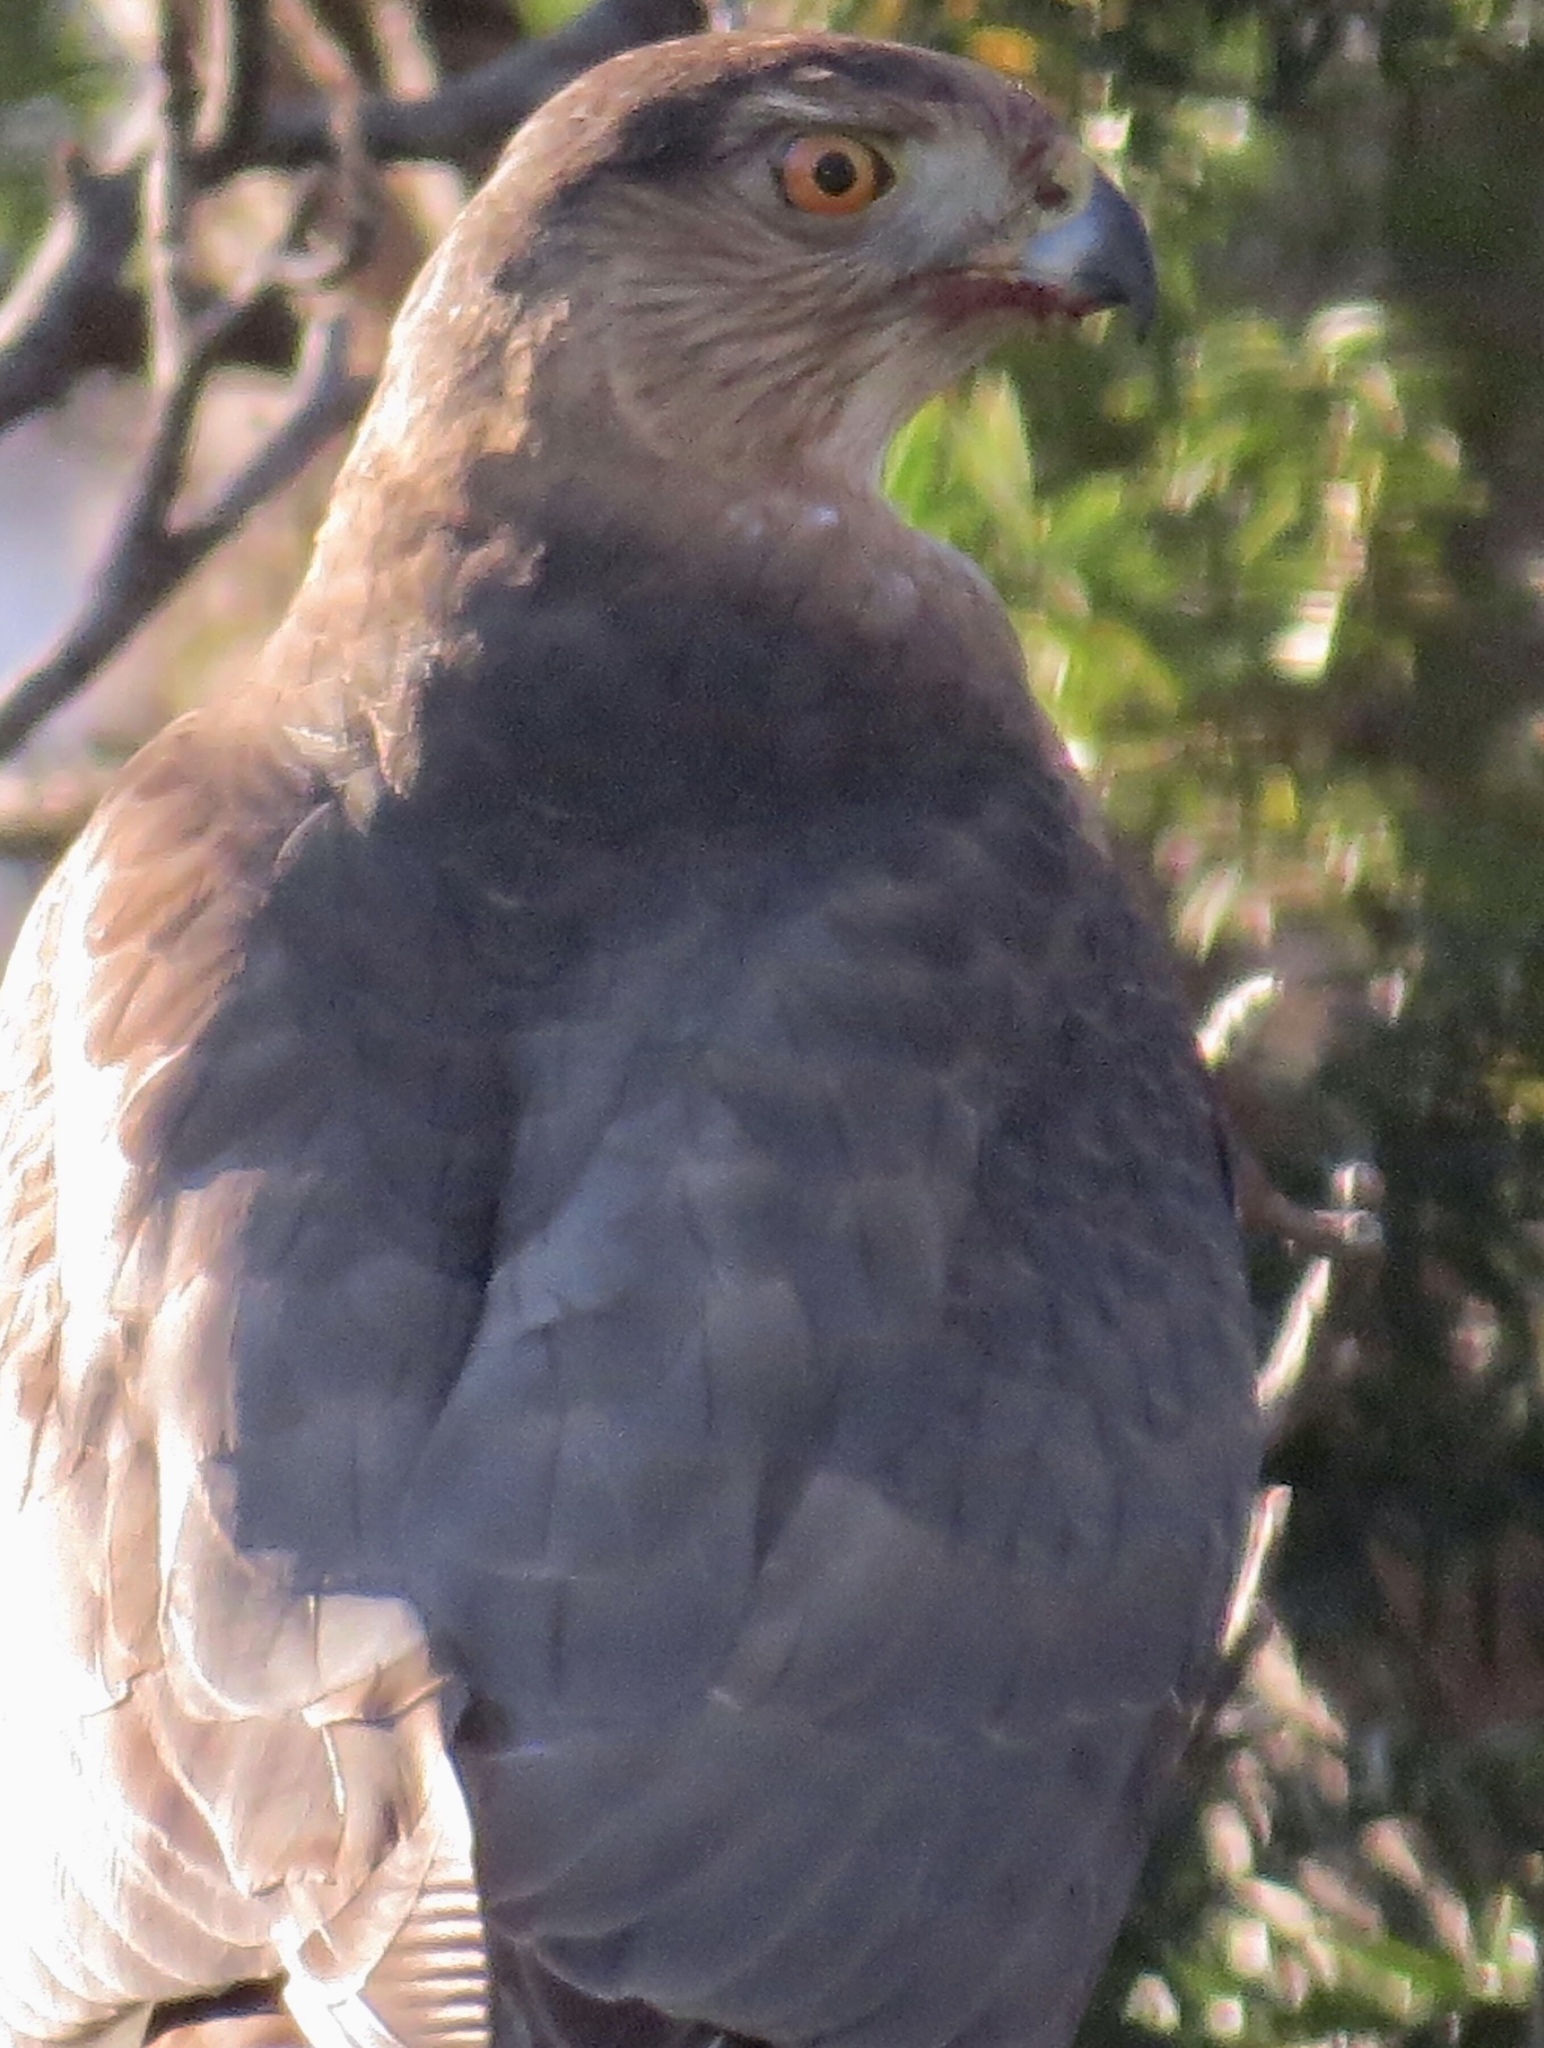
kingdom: Animalia
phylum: Chordata
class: Aves
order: Accipitriformes
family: Accipitridae
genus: Accipiter
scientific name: Accipiter cooperii
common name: Cooper's hawk
